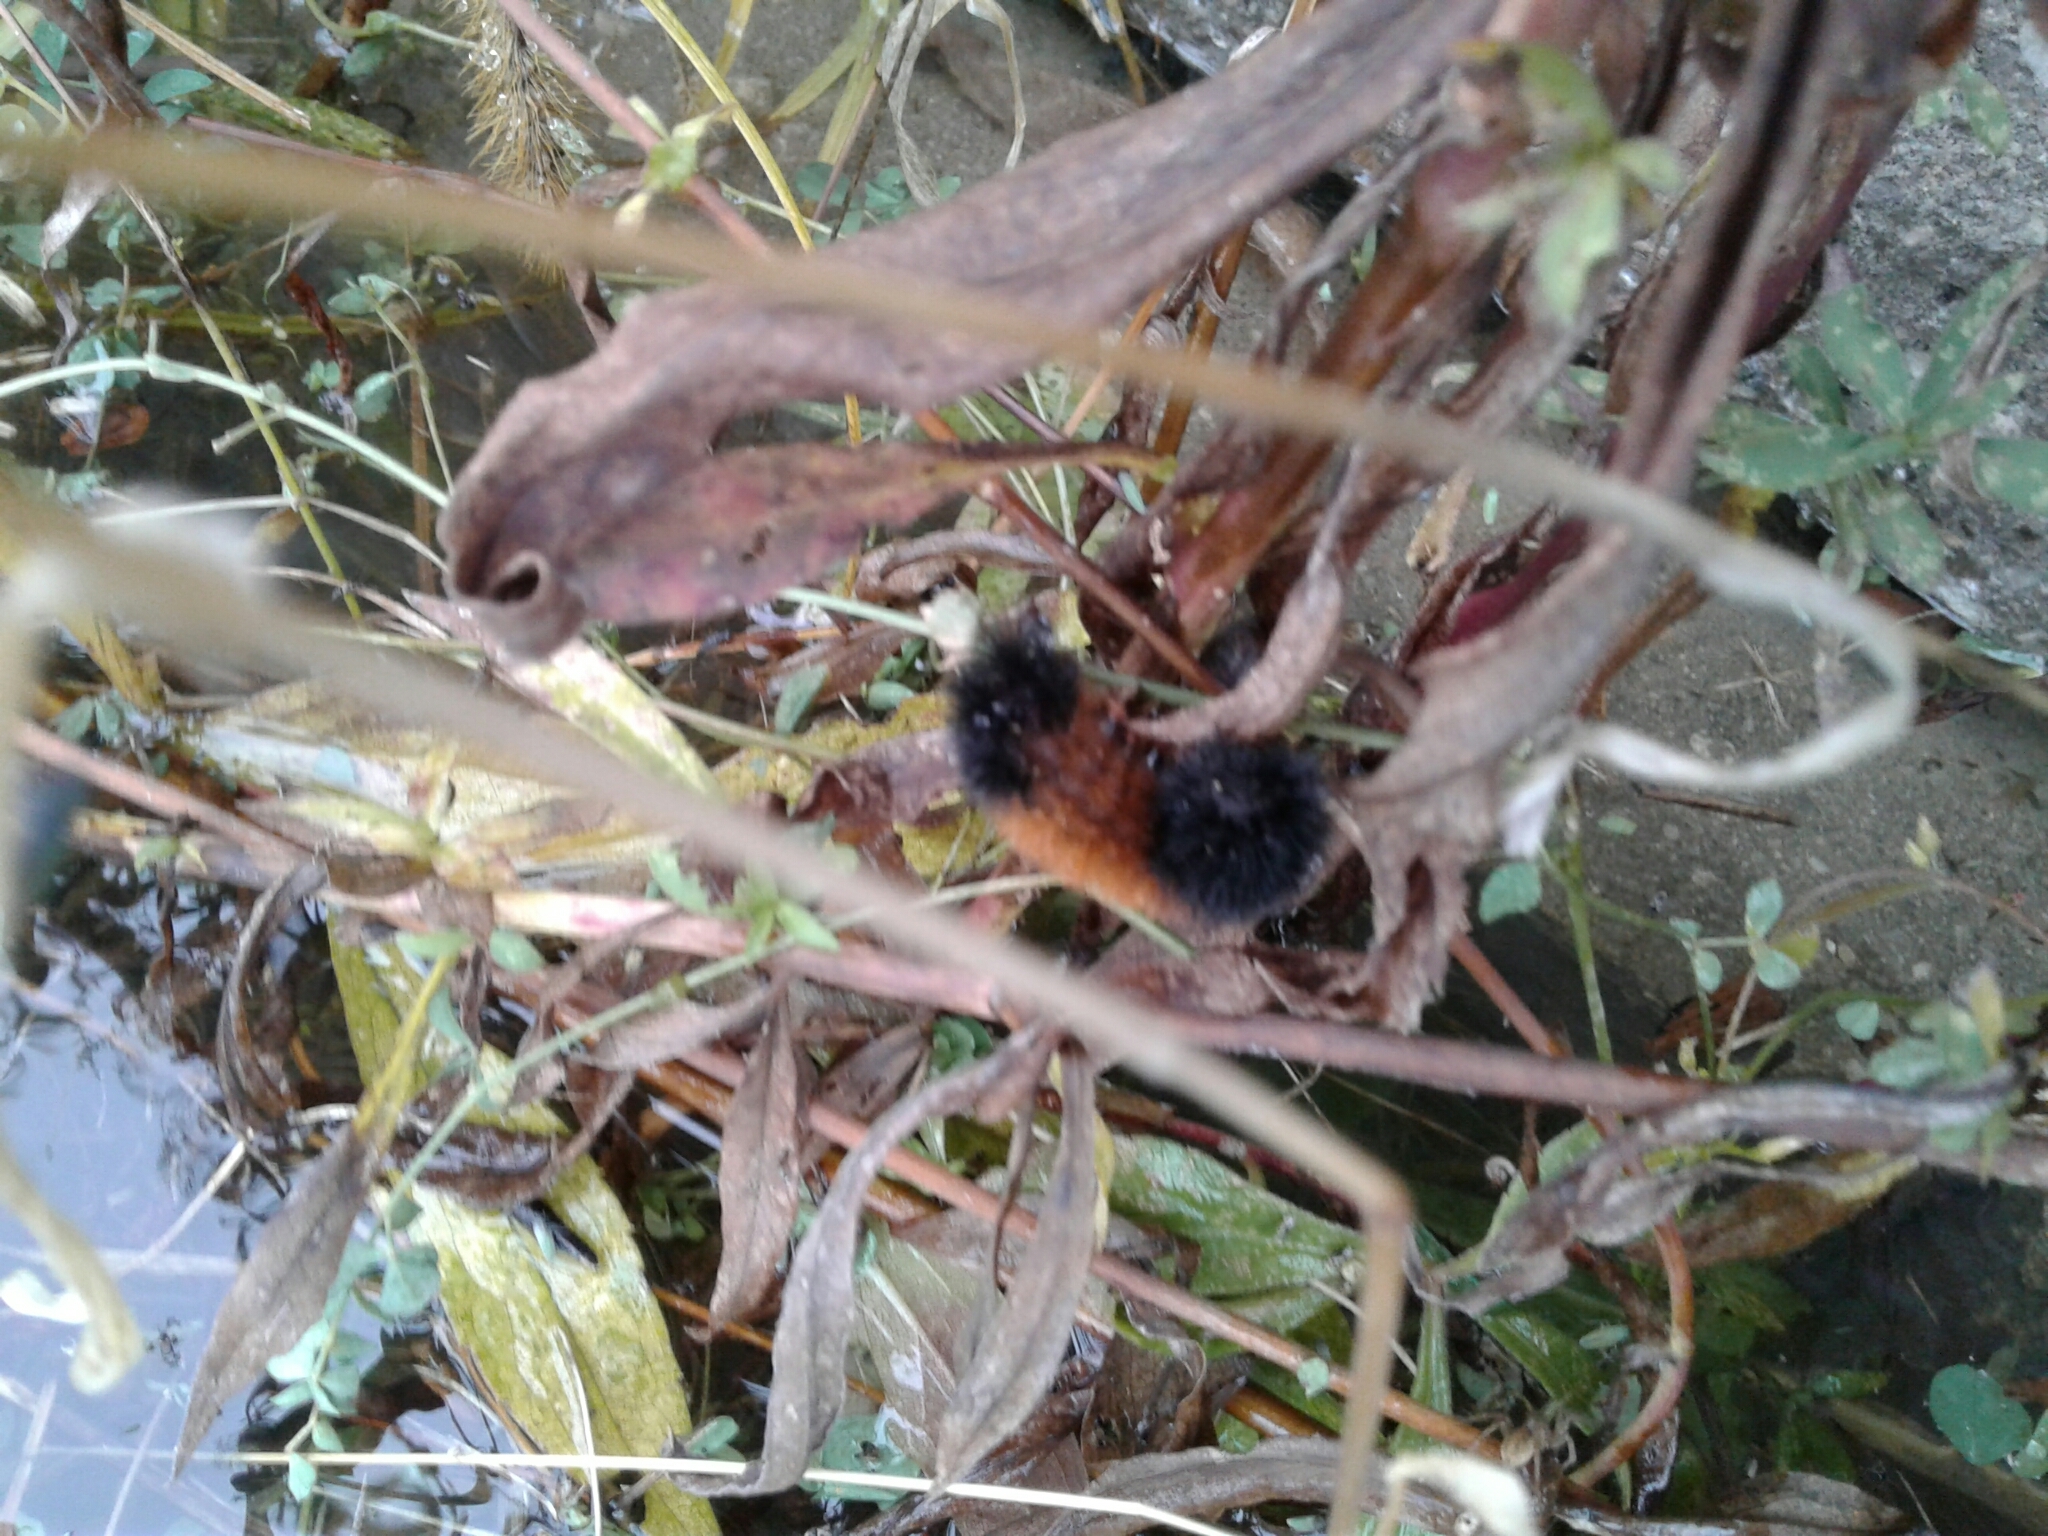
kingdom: Animalia
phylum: Arthropoda
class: Insecta
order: Lepidoptera
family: Erebidae
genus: Pyrrharctia
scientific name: Pyrrharctia isabella
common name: Isabella tiger moth
